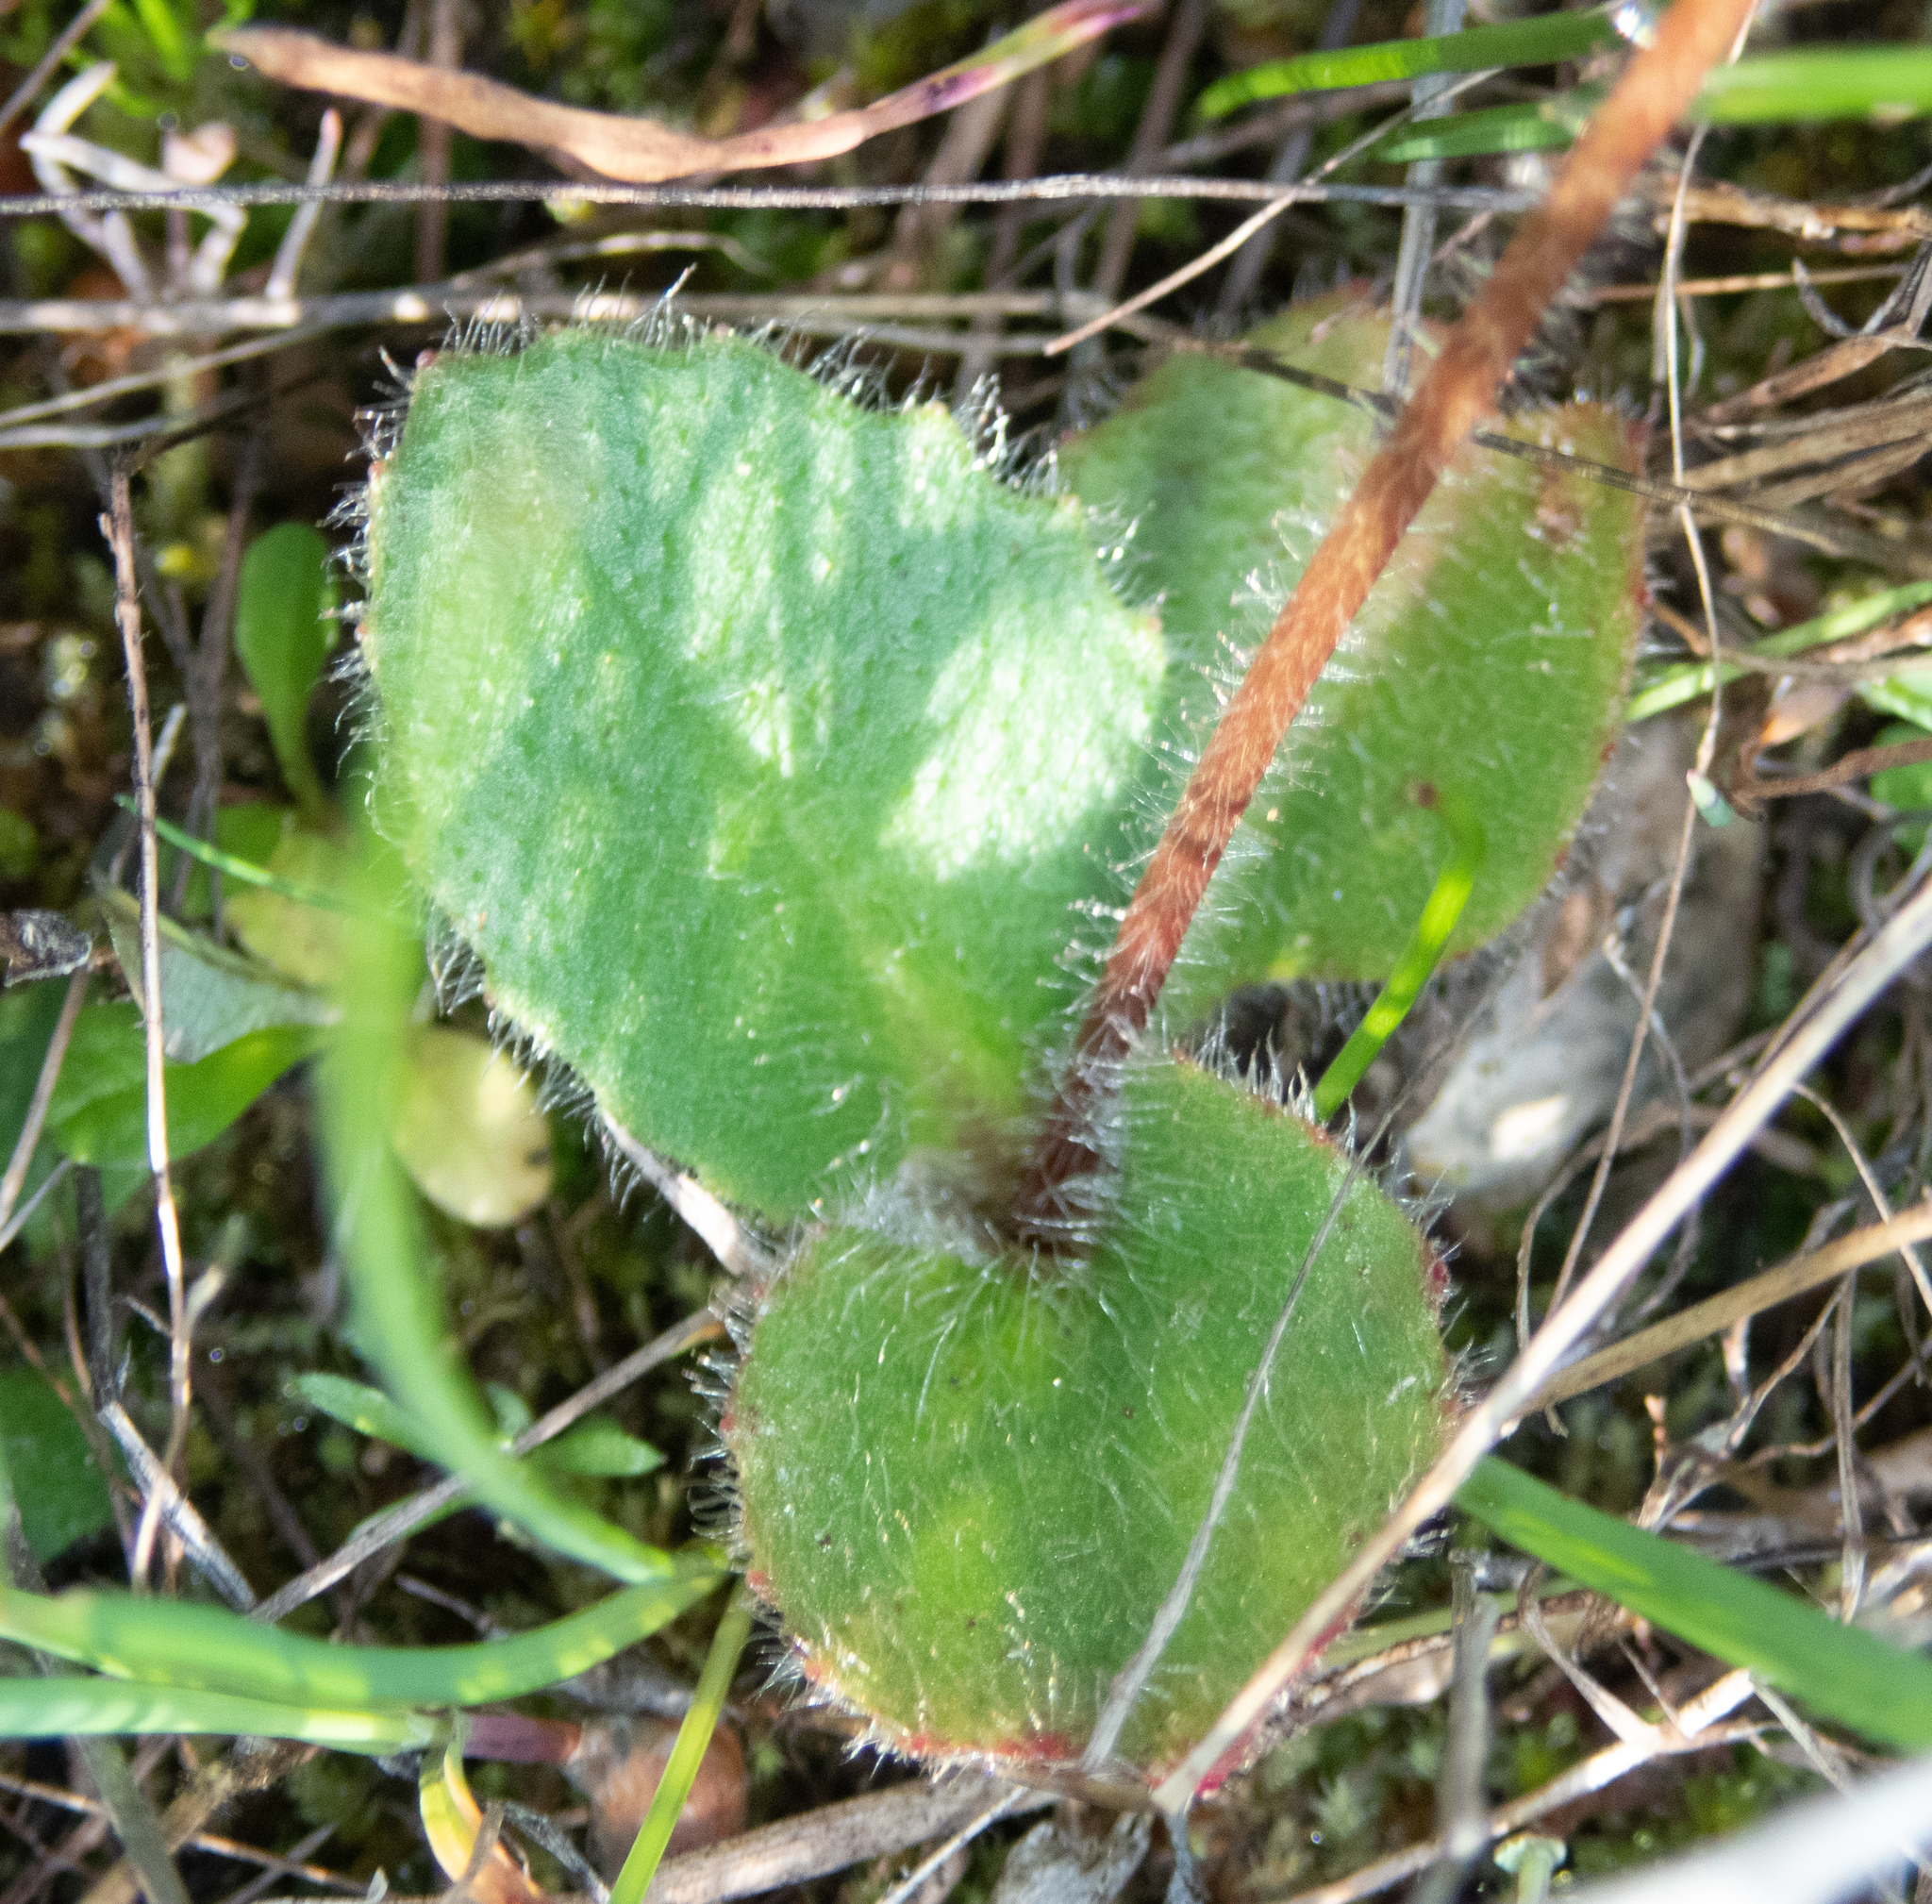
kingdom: Plantae
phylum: Tracheophyta
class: Magnoliopsida
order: Saxifragales
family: Saxifragaceae
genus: Micranthes
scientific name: Micranthes californica
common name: California saxifrage
